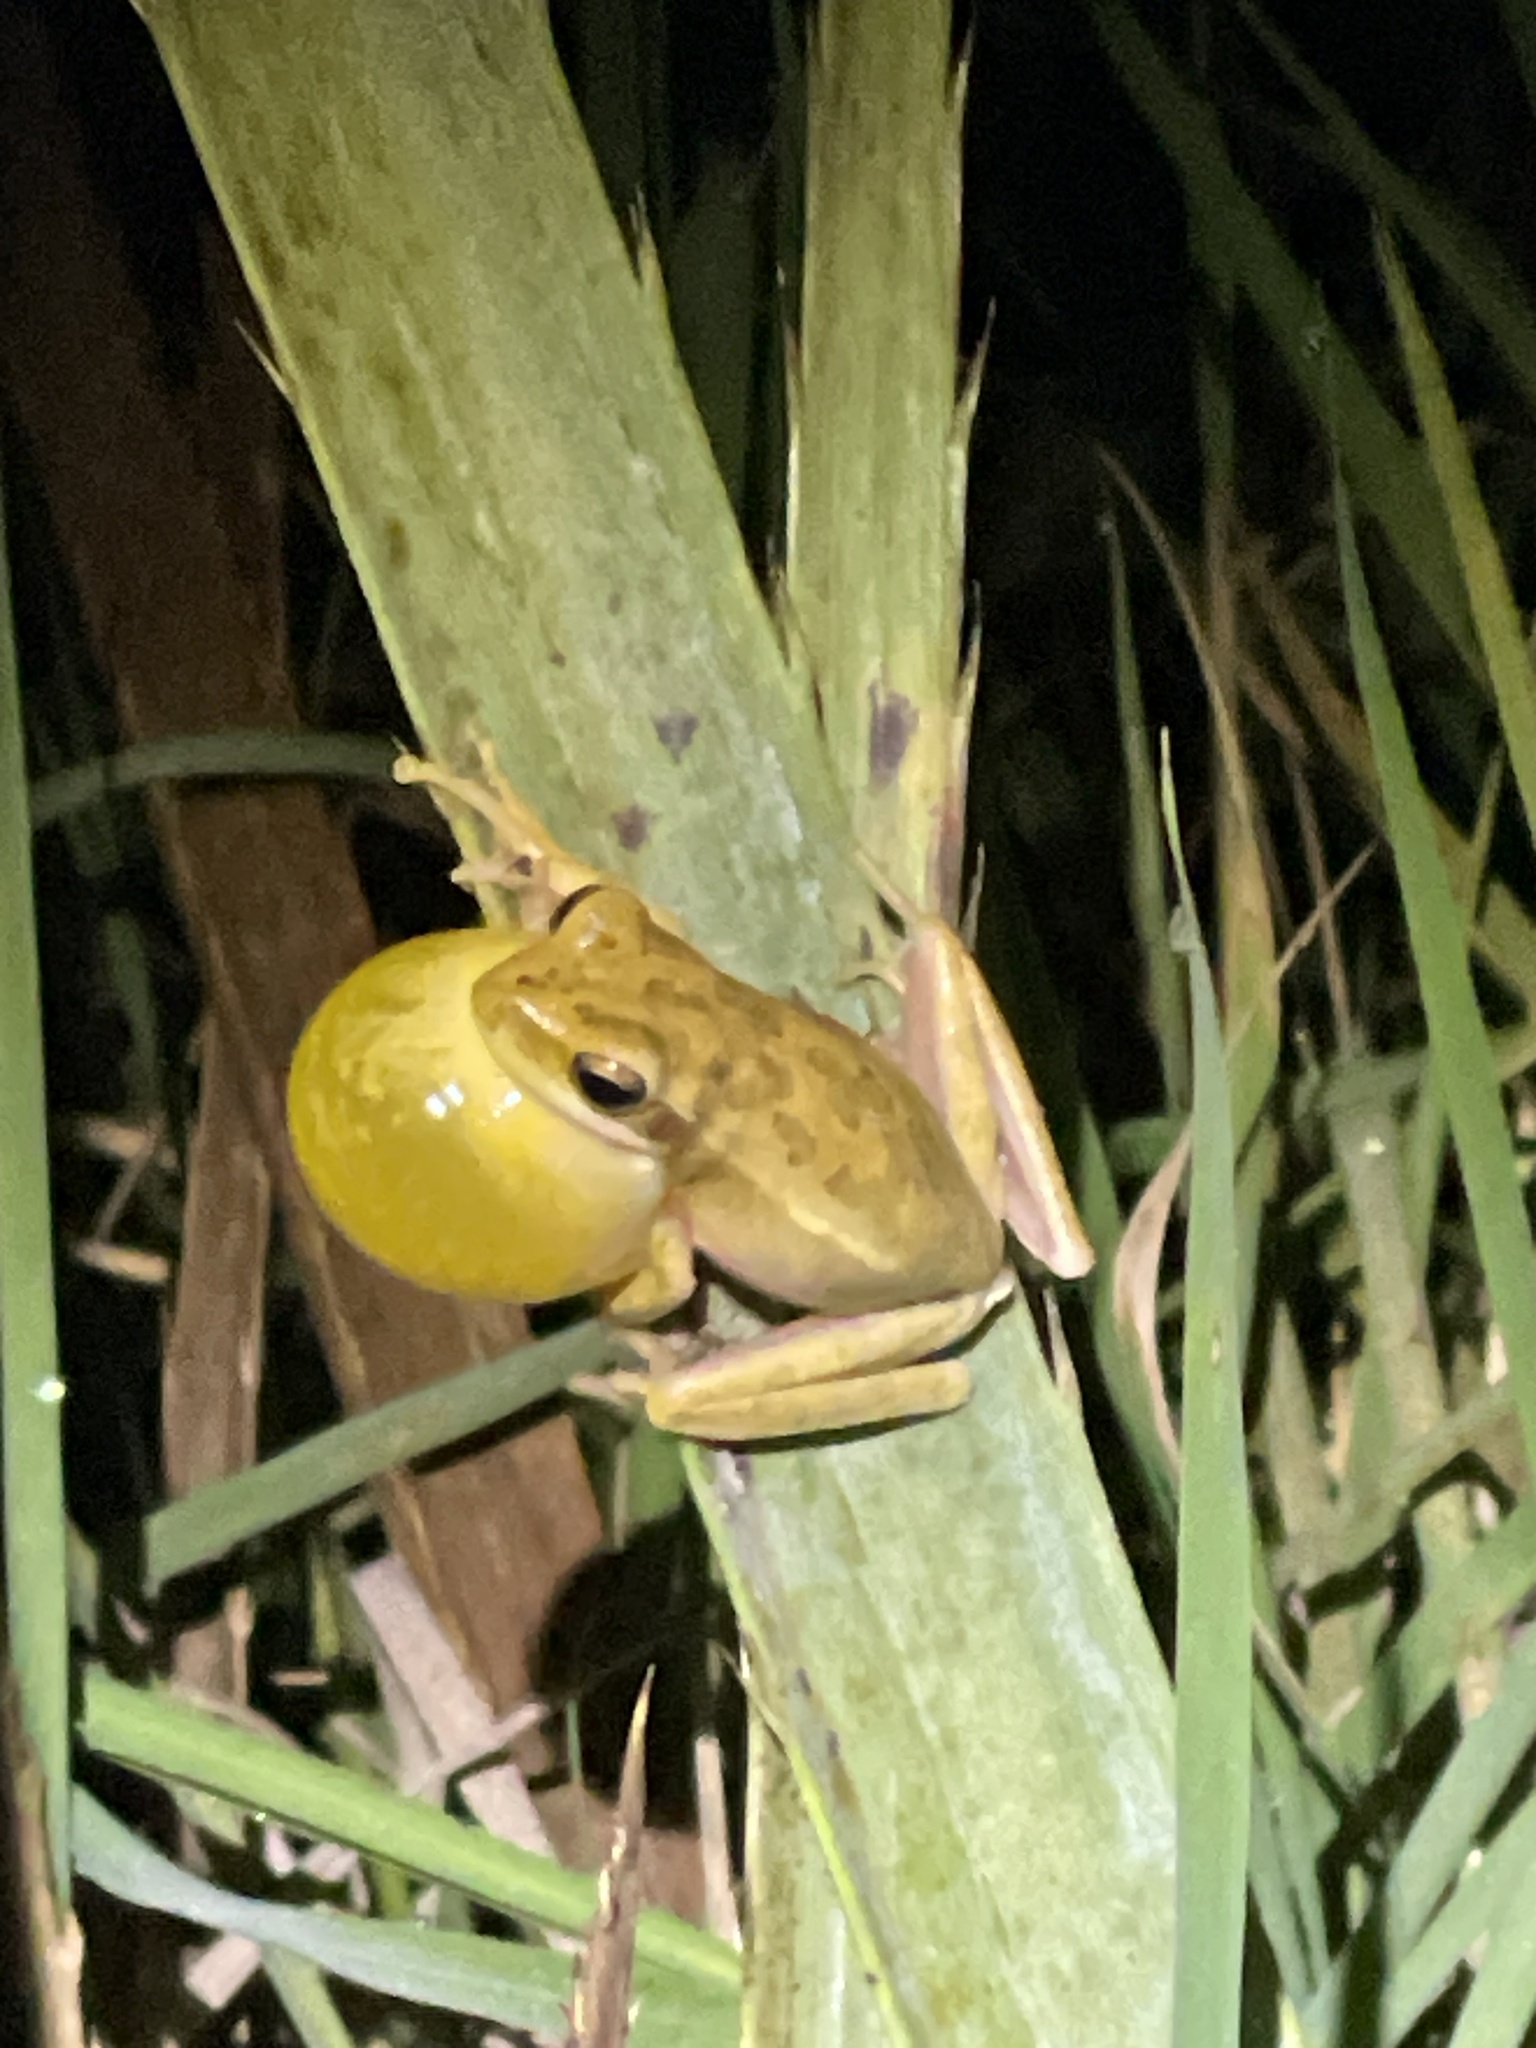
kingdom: Animalia
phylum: Chordata
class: Amphibia
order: Anura
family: Hylidae
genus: Boana
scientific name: Boana pulchella
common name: Montevideo treefrog
